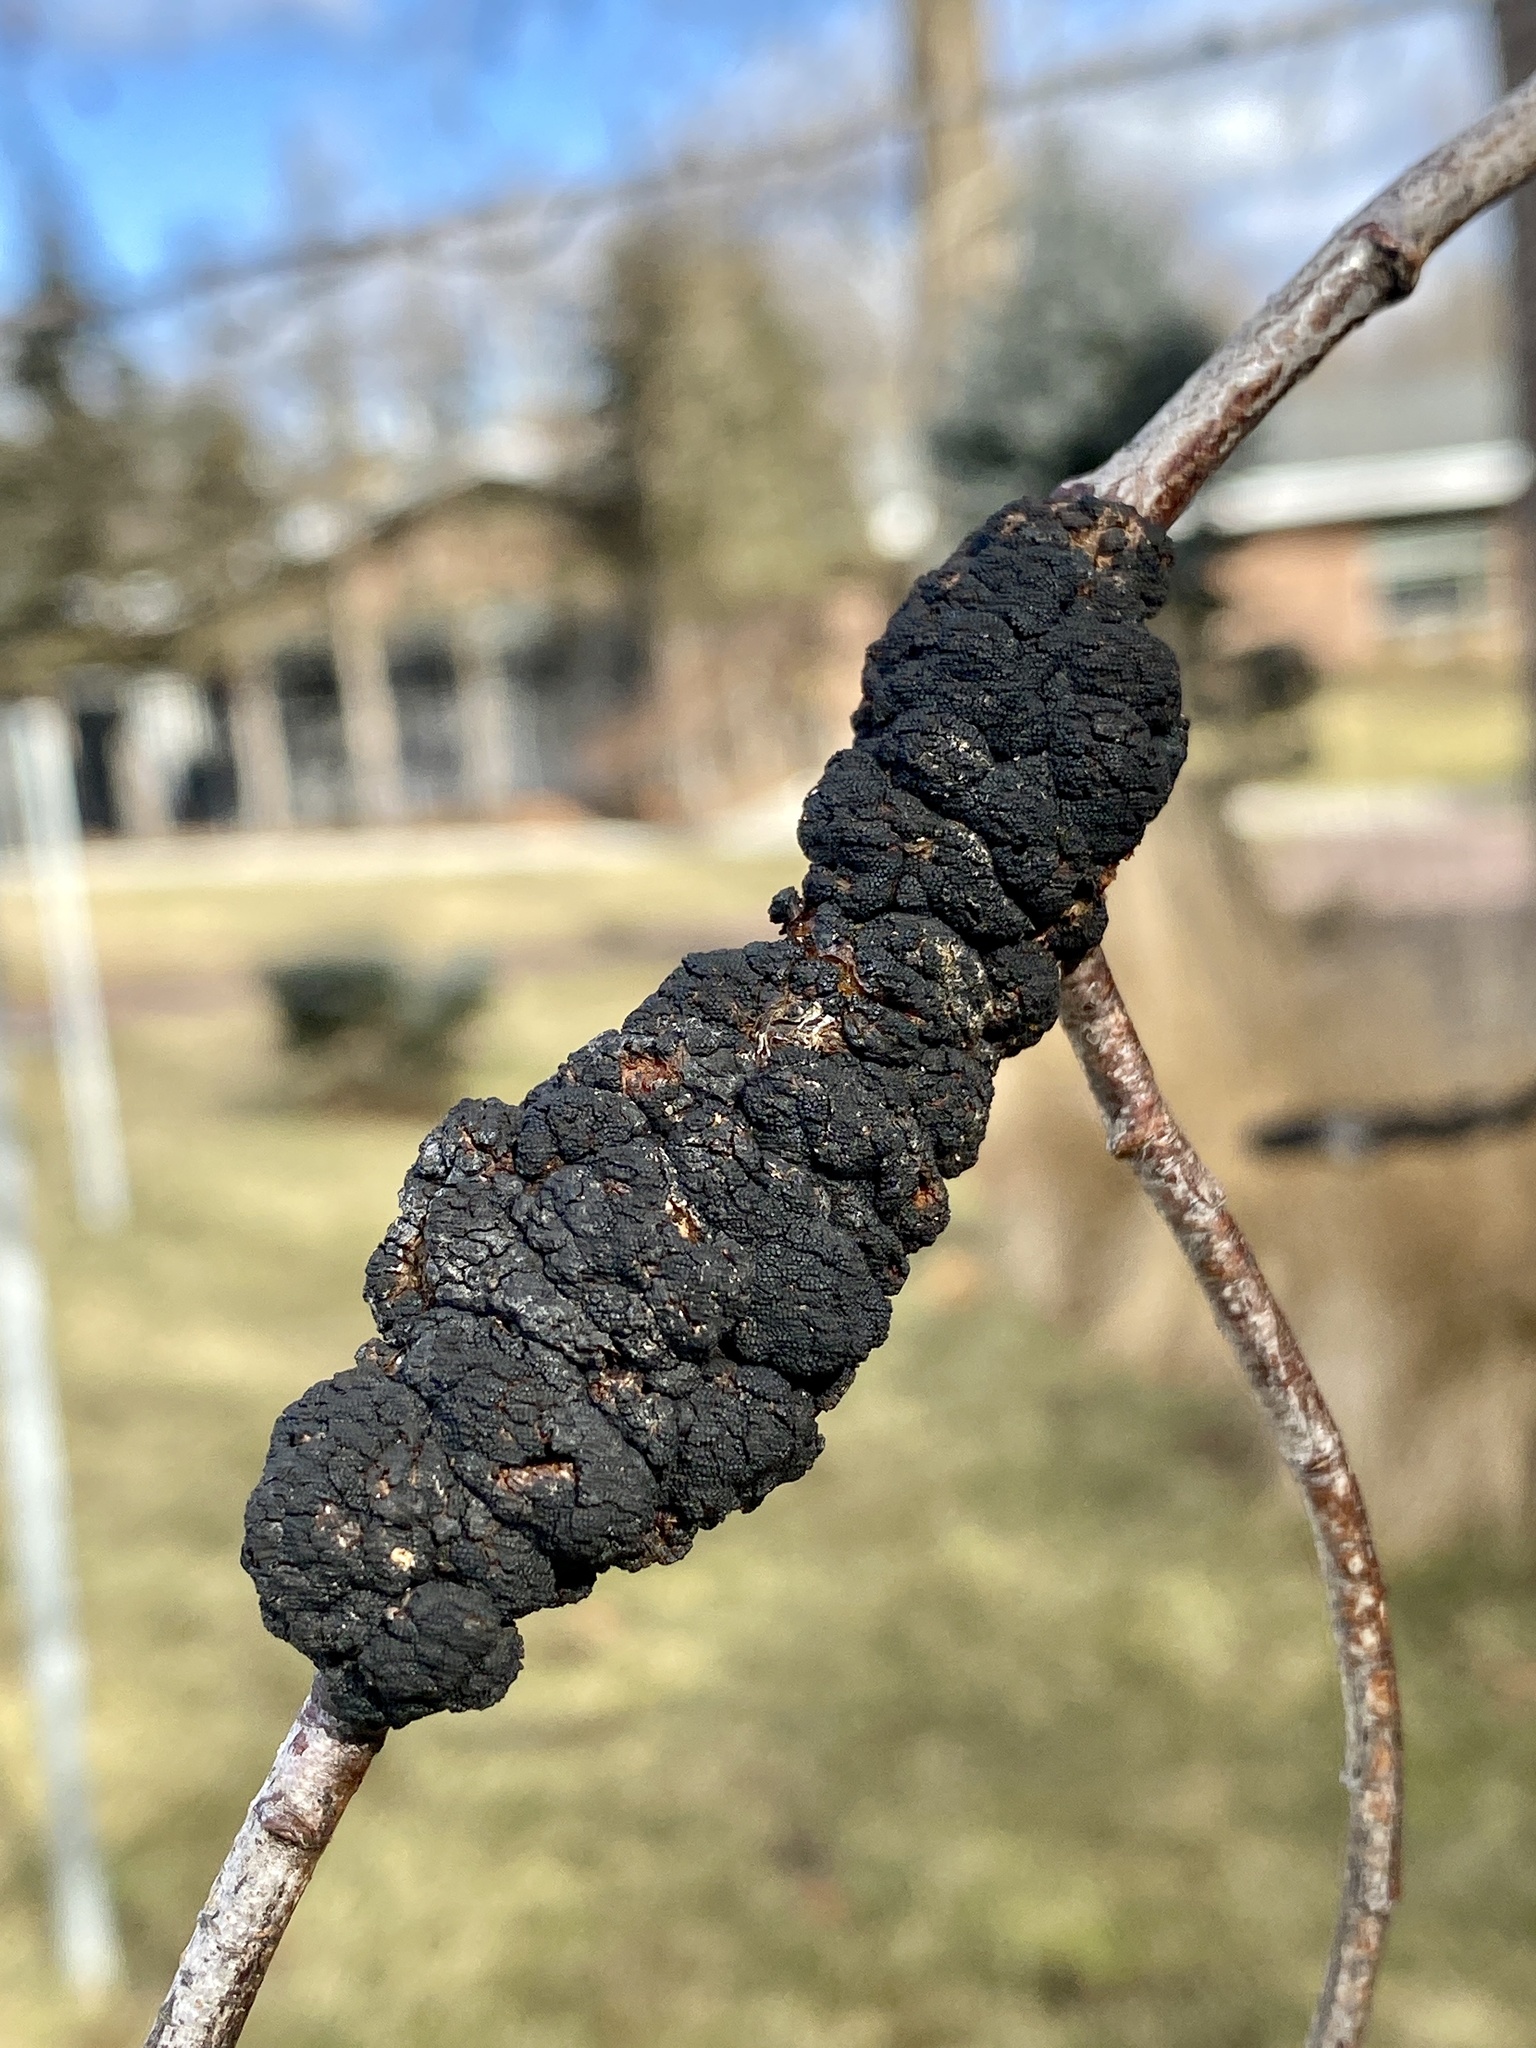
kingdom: Fungi
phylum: Ascomycota
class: Dothideomycetes
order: Venturiales
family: Venturiaceae
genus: Apiosporina
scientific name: Apiosporina morbosa
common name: Black knot
